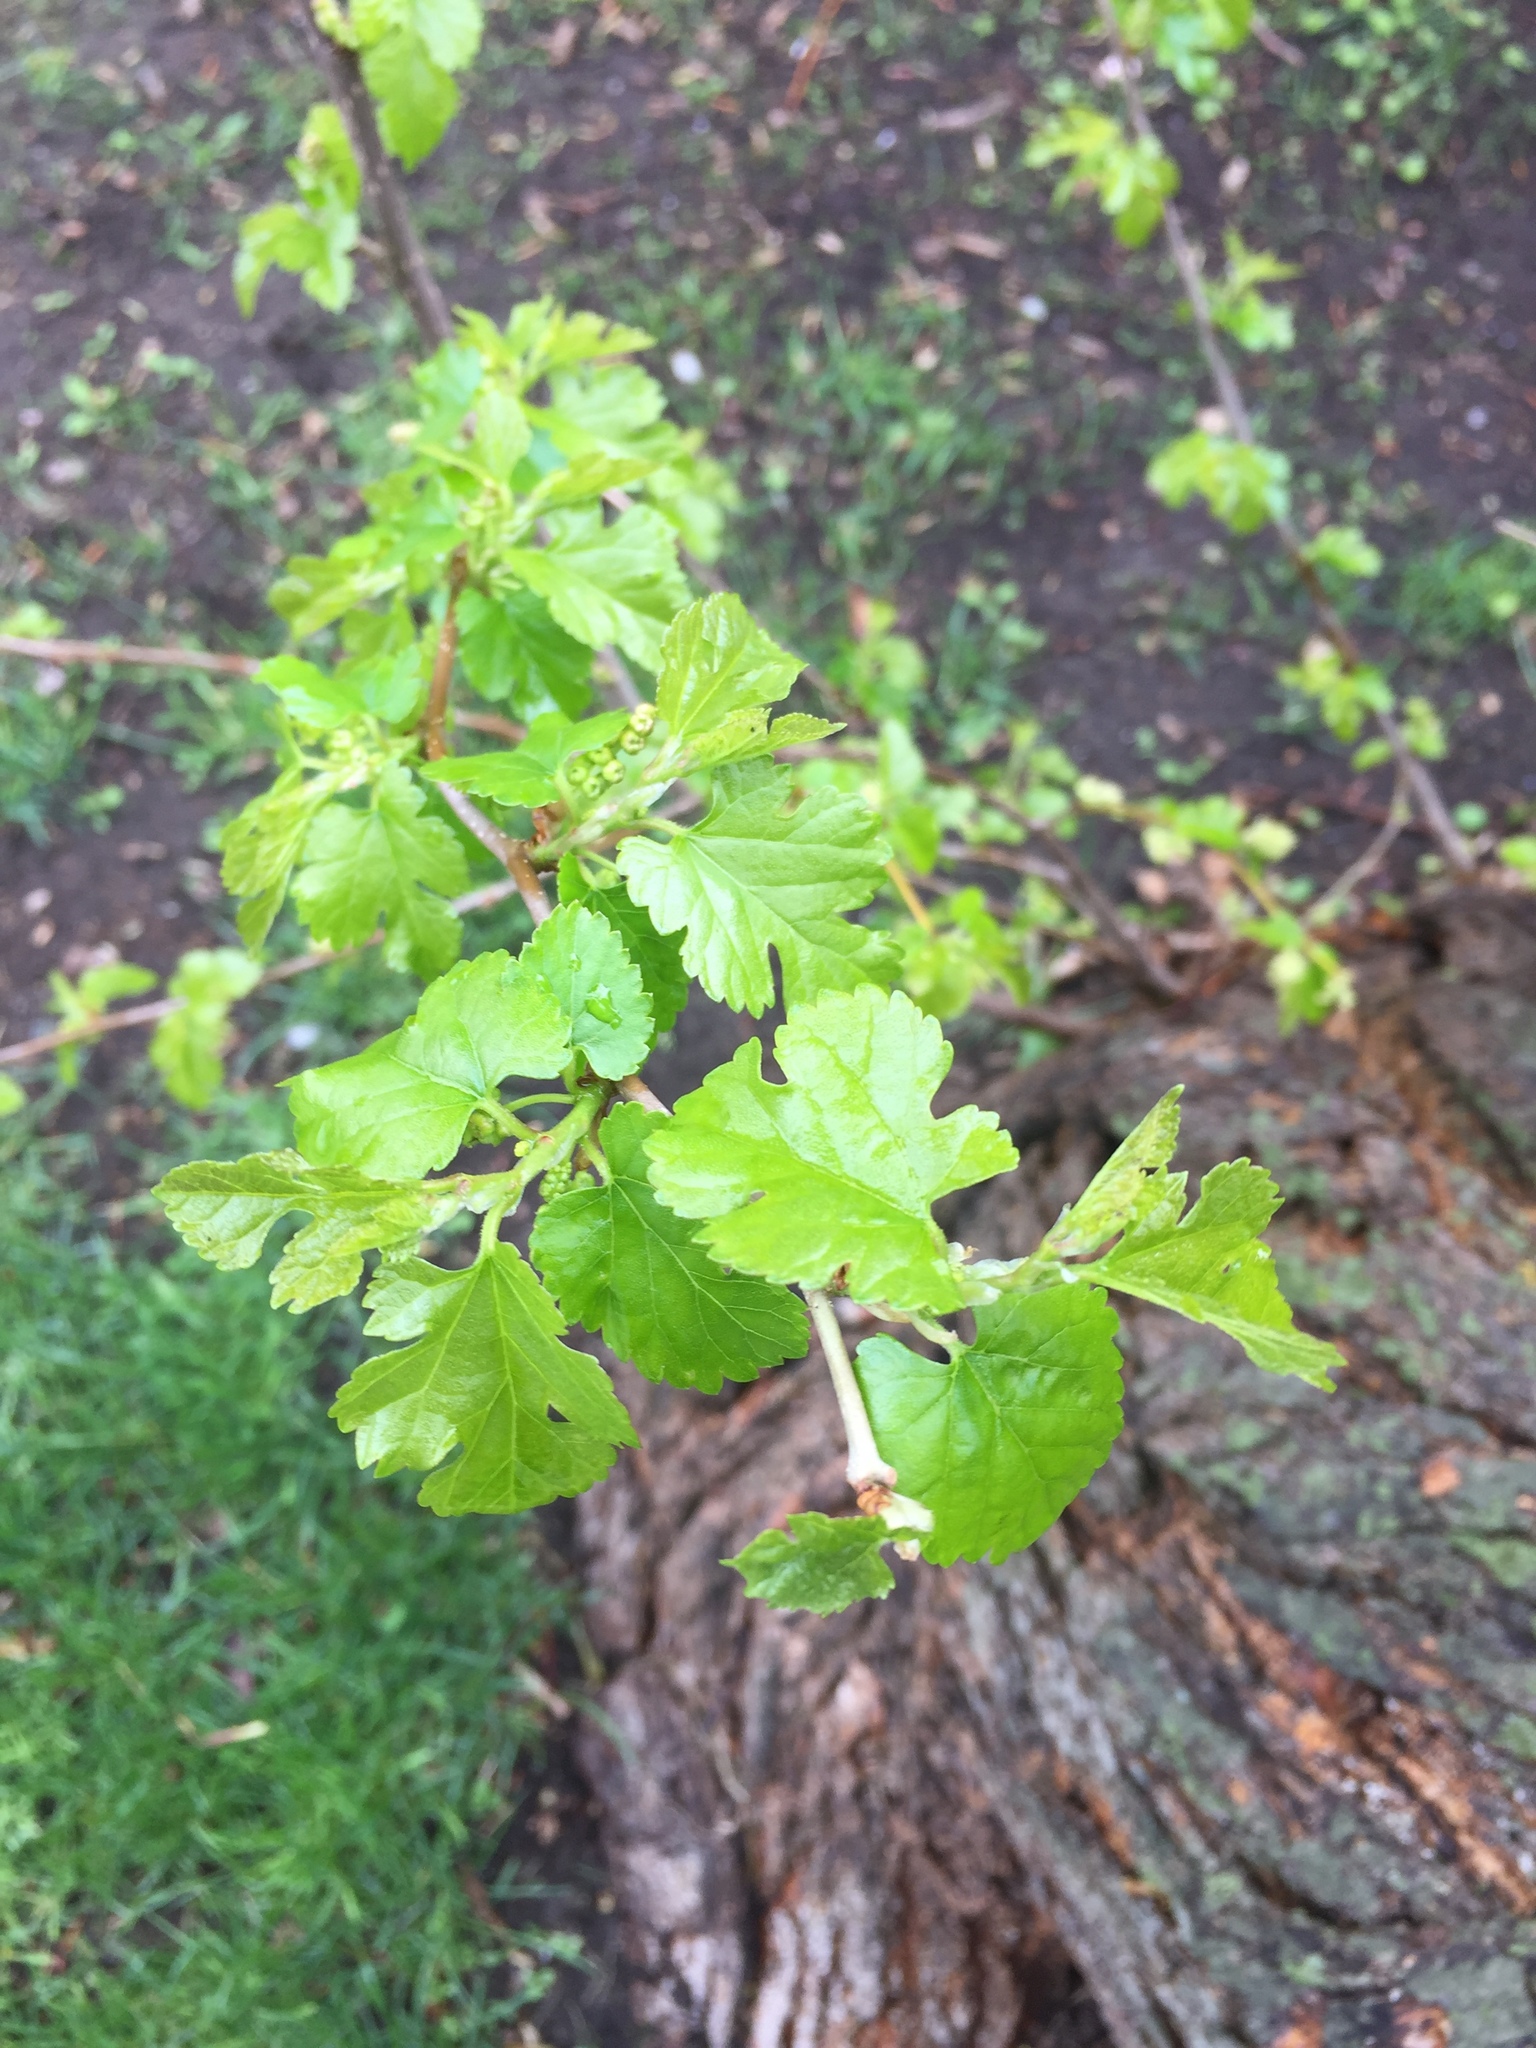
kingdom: Plantae
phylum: Tracheophyta
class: Magnoliopsida
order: Rosales
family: Moraceae
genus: Morus
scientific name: Morus alba
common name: White mulberry
